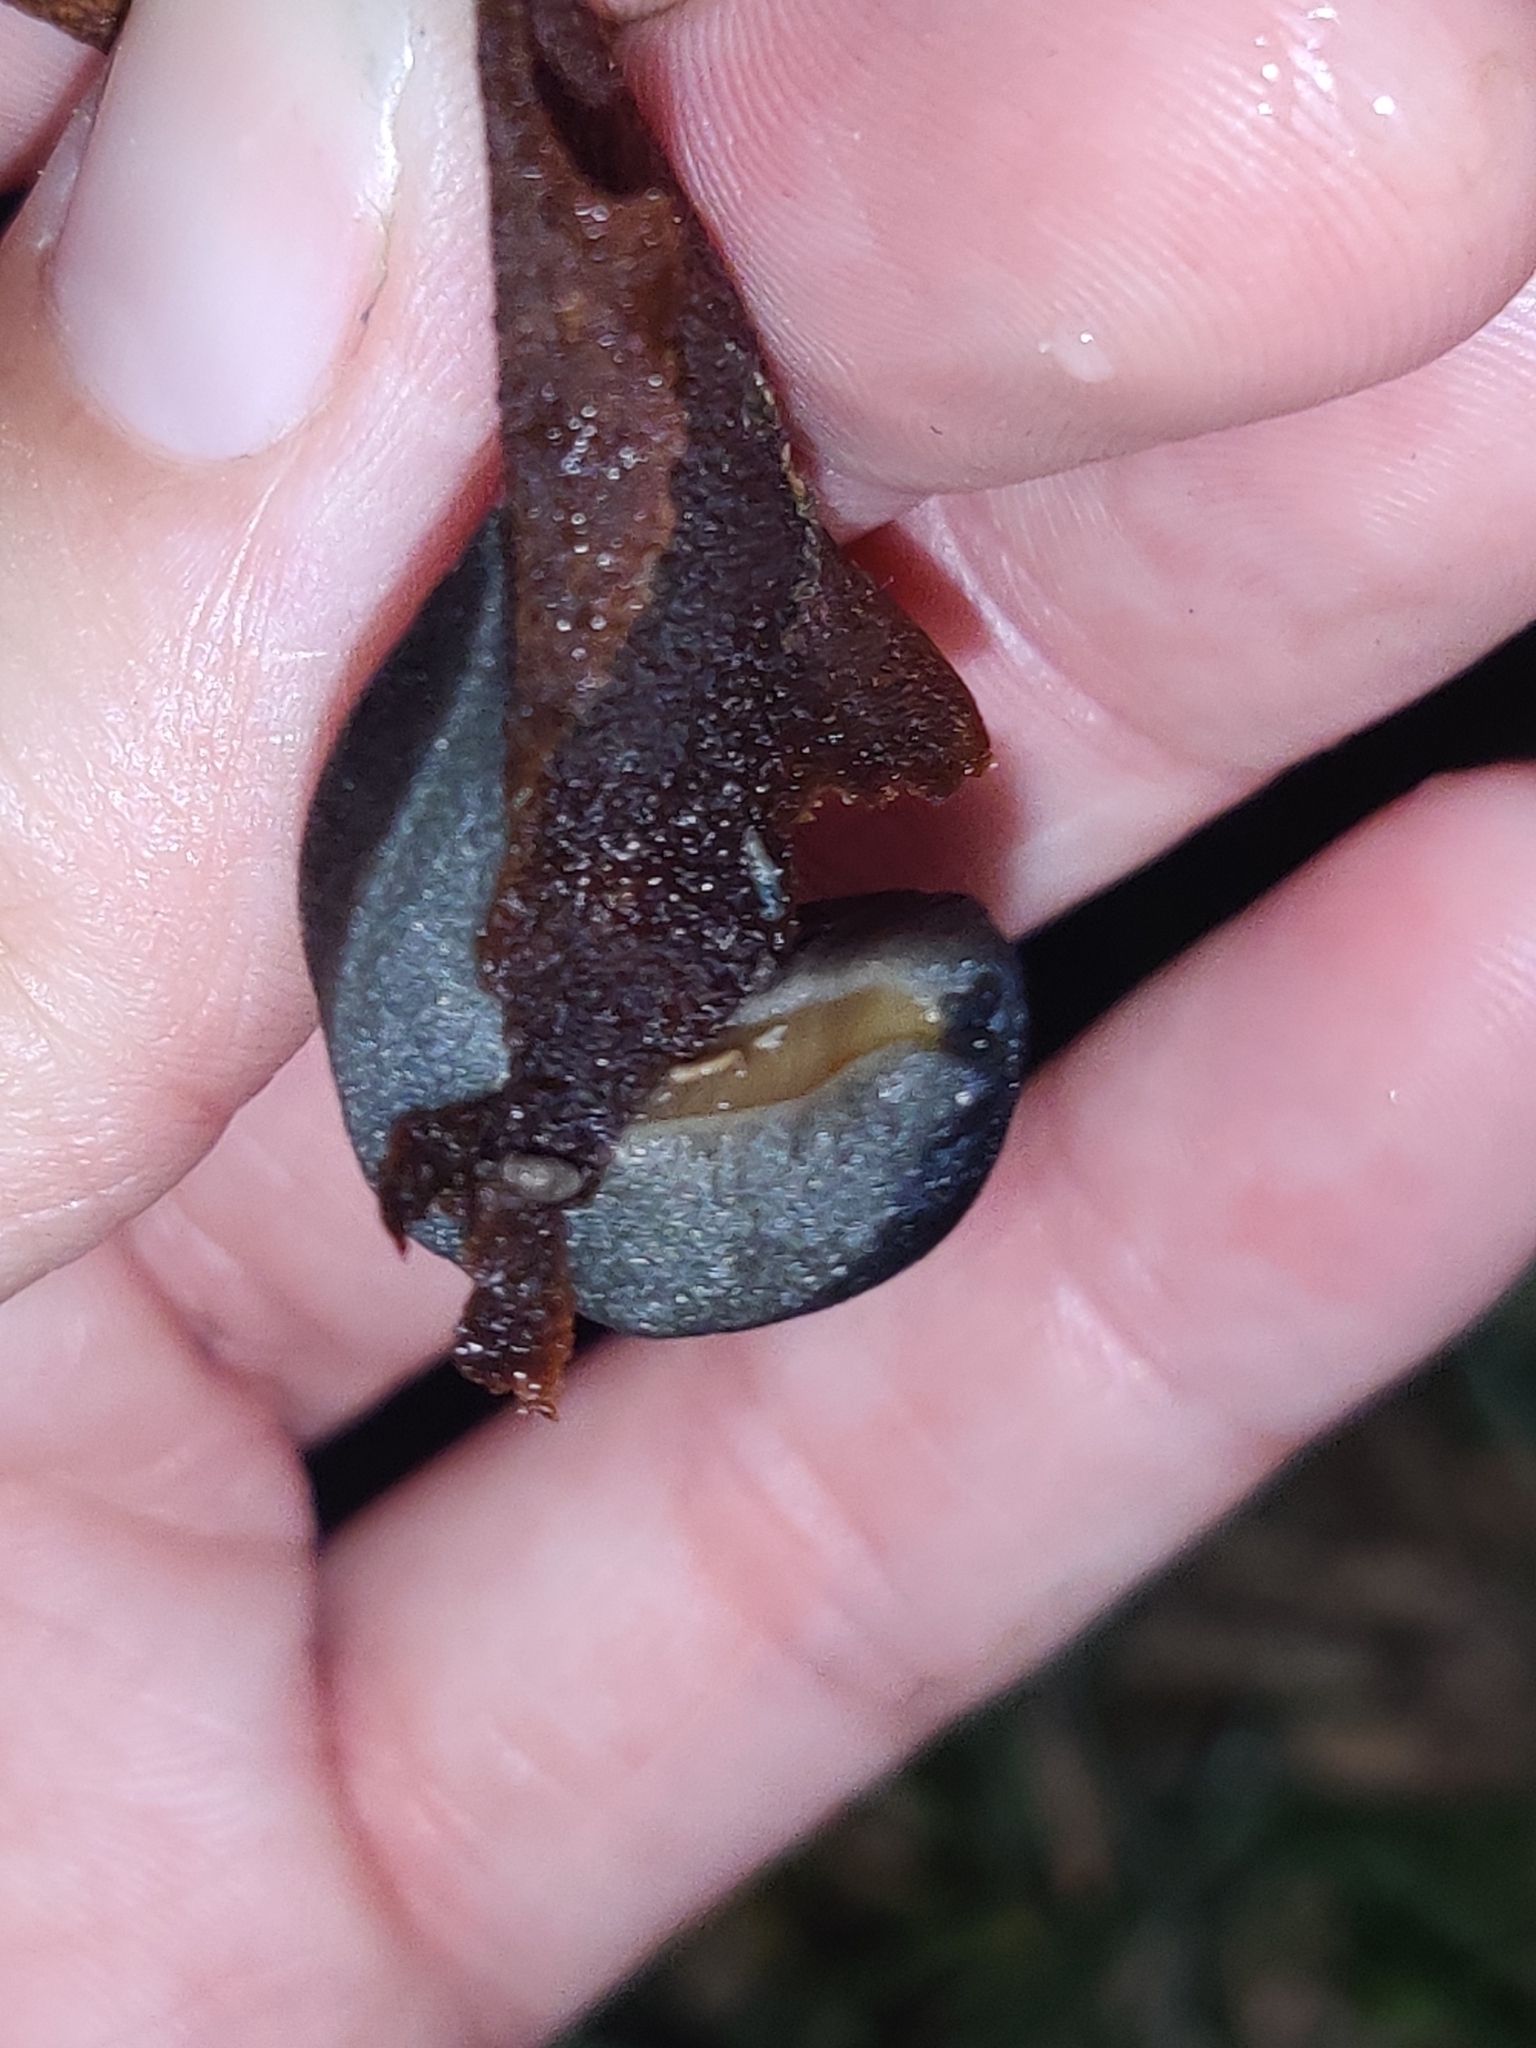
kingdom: Animalia
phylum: Mollusca
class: Gastropoda
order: Systellommatophora
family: Veronicellidae
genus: Belocaulus
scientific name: Belocaulus angustipes
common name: Black velvet leatherleaf slug
